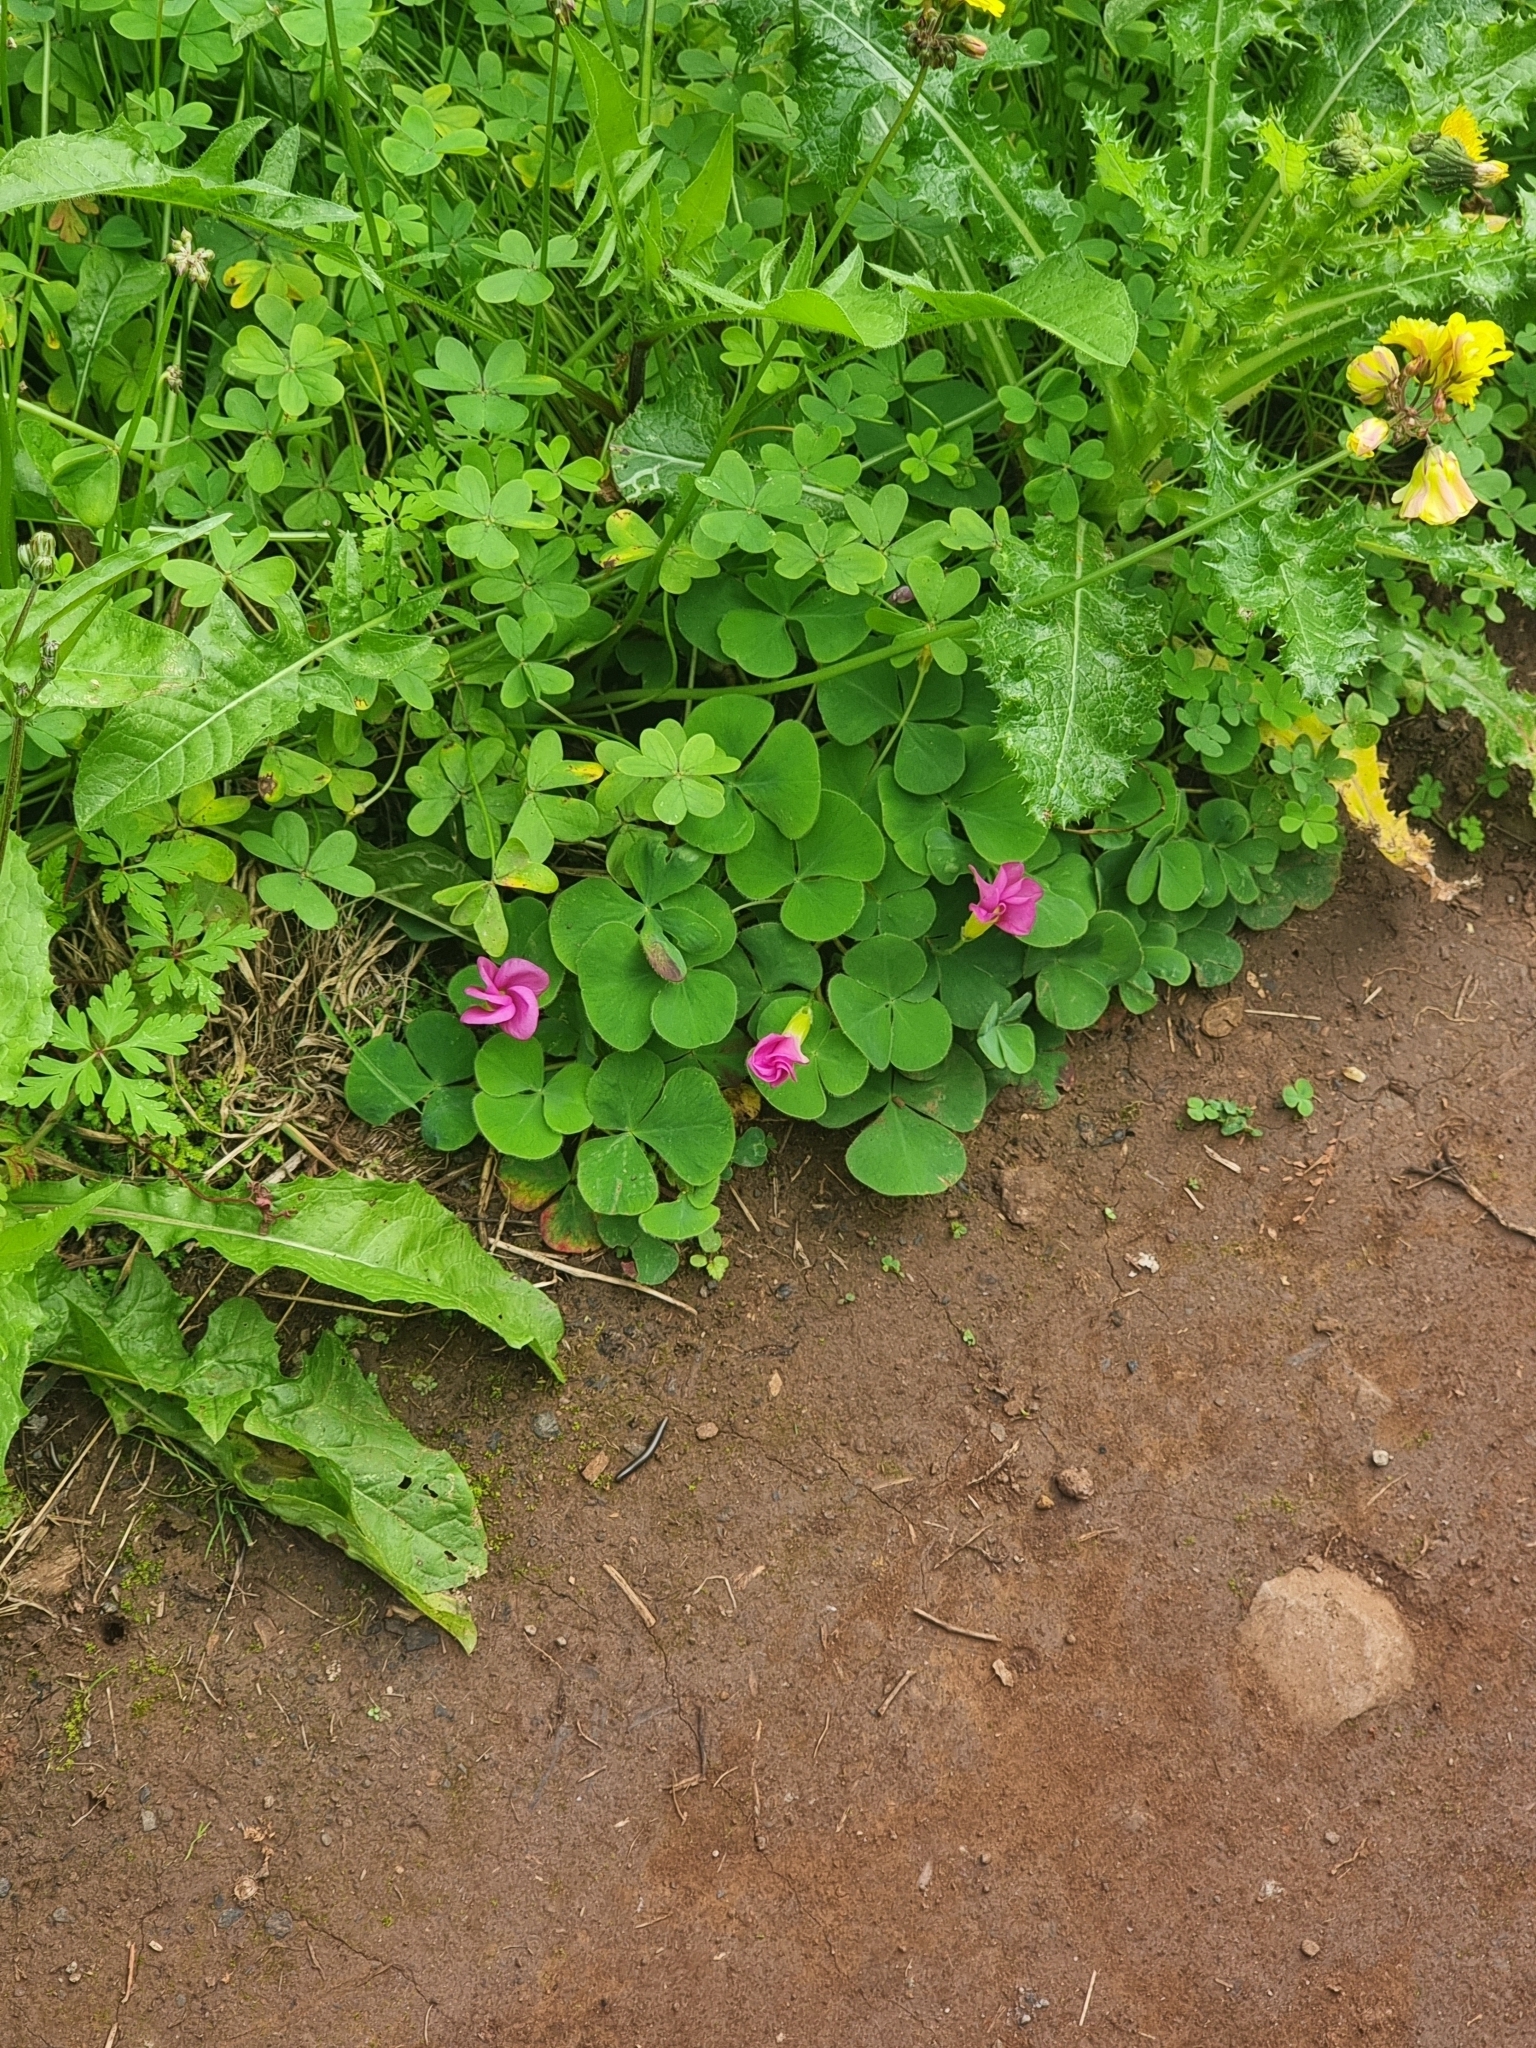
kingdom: Plantae
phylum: Tracheophyta
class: Magnoliopsida
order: Oxalidales
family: Oxalidaceae
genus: Oxalis
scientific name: Oxalis purpurea
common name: Purple woodsorrel
